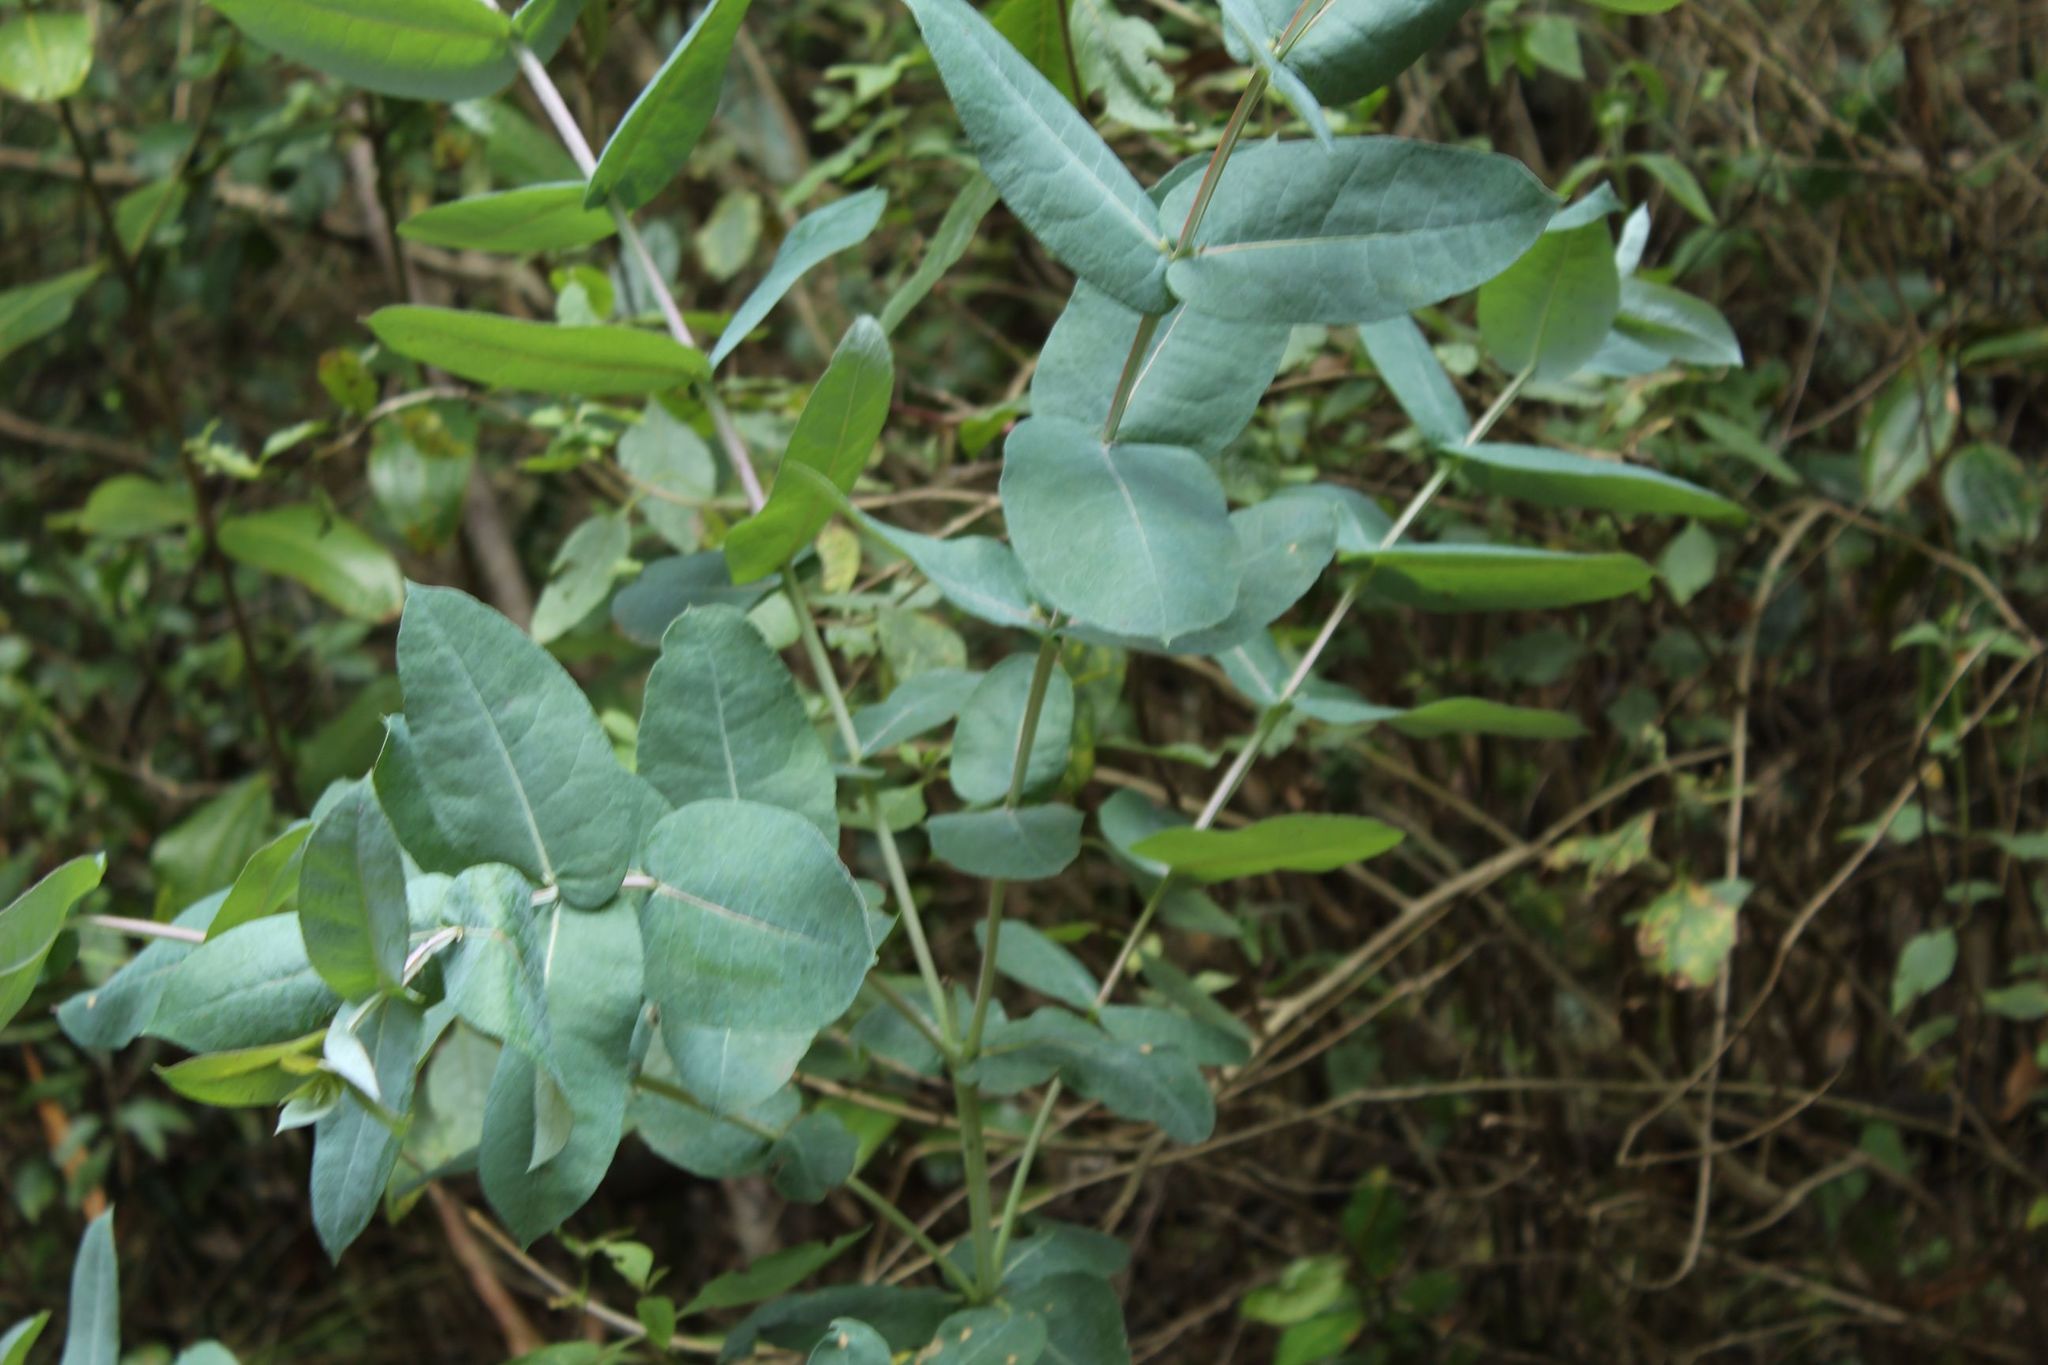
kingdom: Plantae
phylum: Tracheophyta
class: Magnoliopsida
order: Myrtales
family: Myrtaceae
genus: Eucalyptus
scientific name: Eucalyptus globulus
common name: Southern blue-gum
